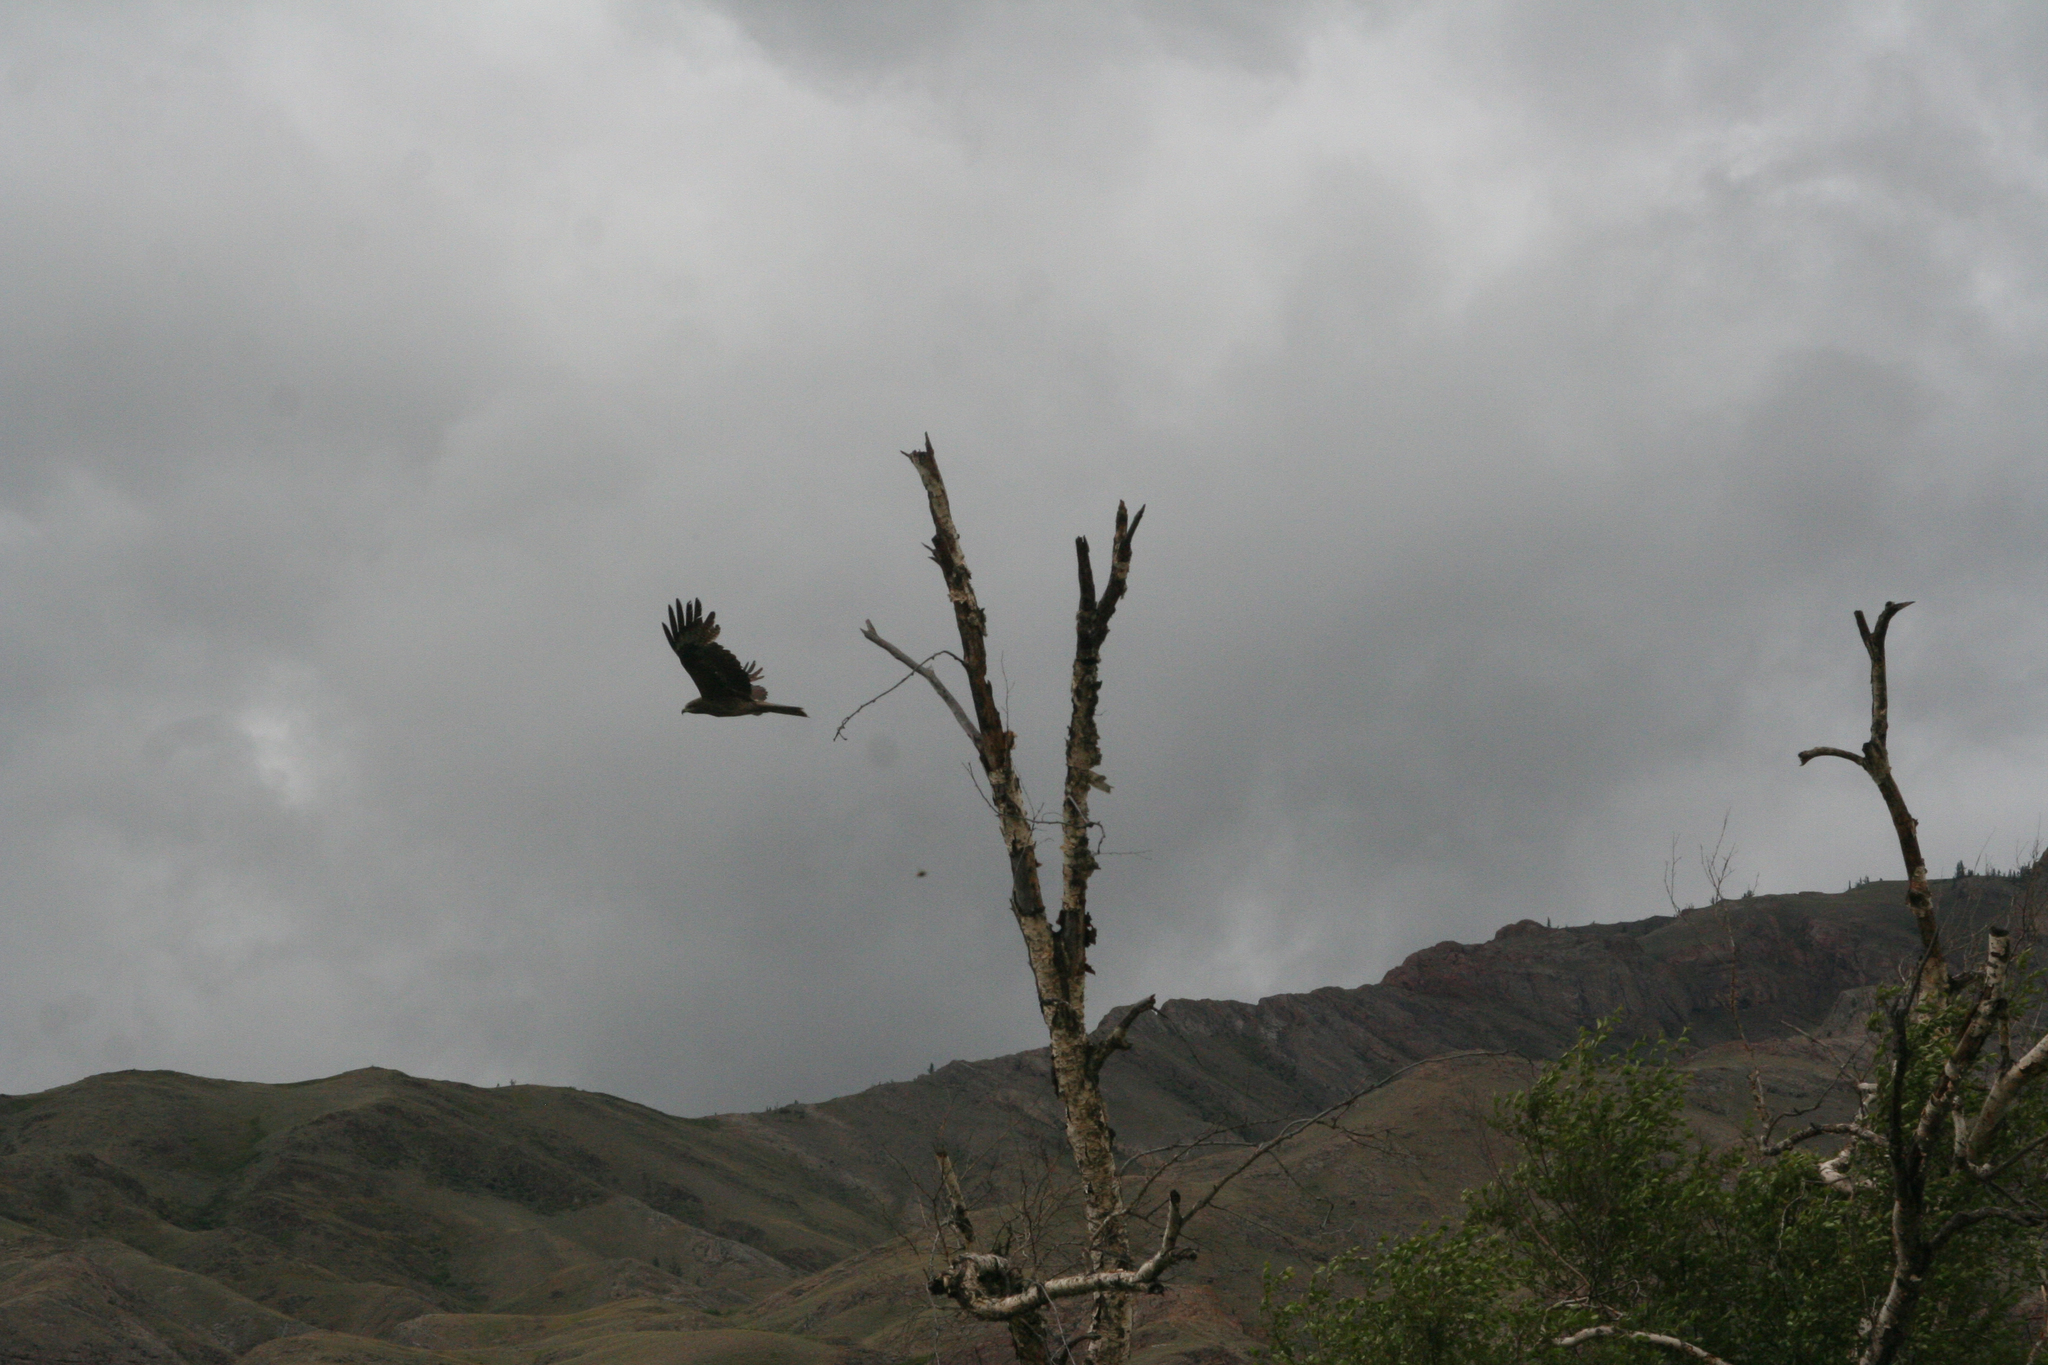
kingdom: Animalia
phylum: Chordata
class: Aves
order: Accipitriformes
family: Accipitridae
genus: Milvus
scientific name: Milvus migrans
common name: Black kite
